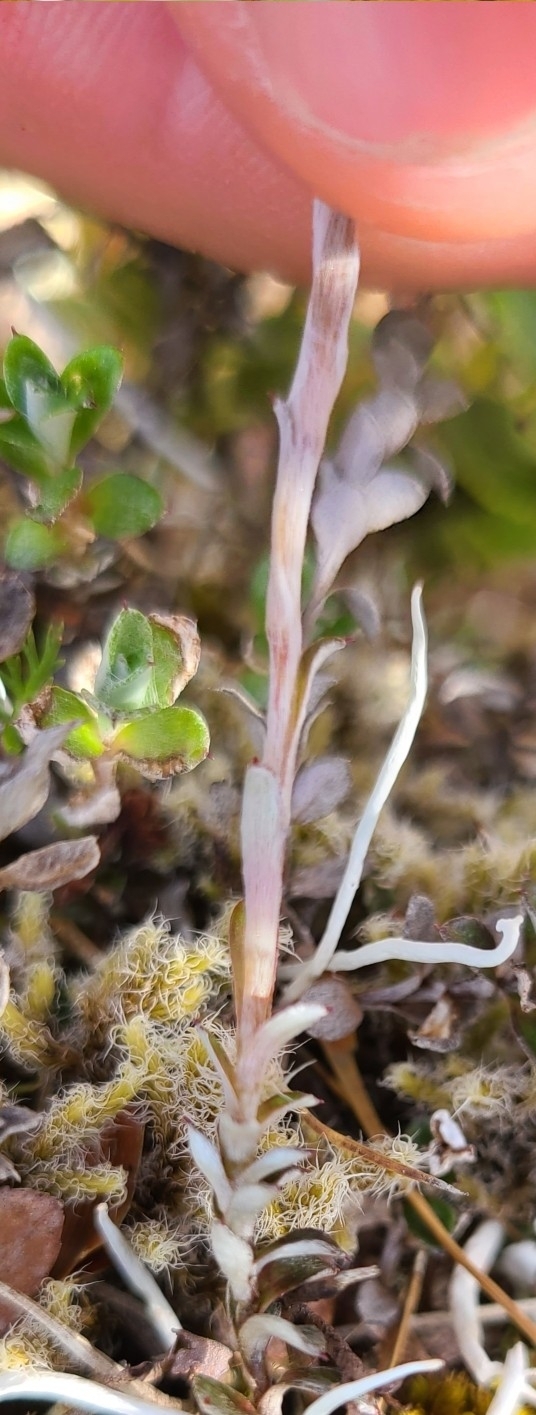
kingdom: Plantae
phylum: Tracheophyta
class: Magnoliopsida
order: Asterales
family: Asteraceae
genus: Anaphalioides
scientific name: Anaphalioides bellidioides
